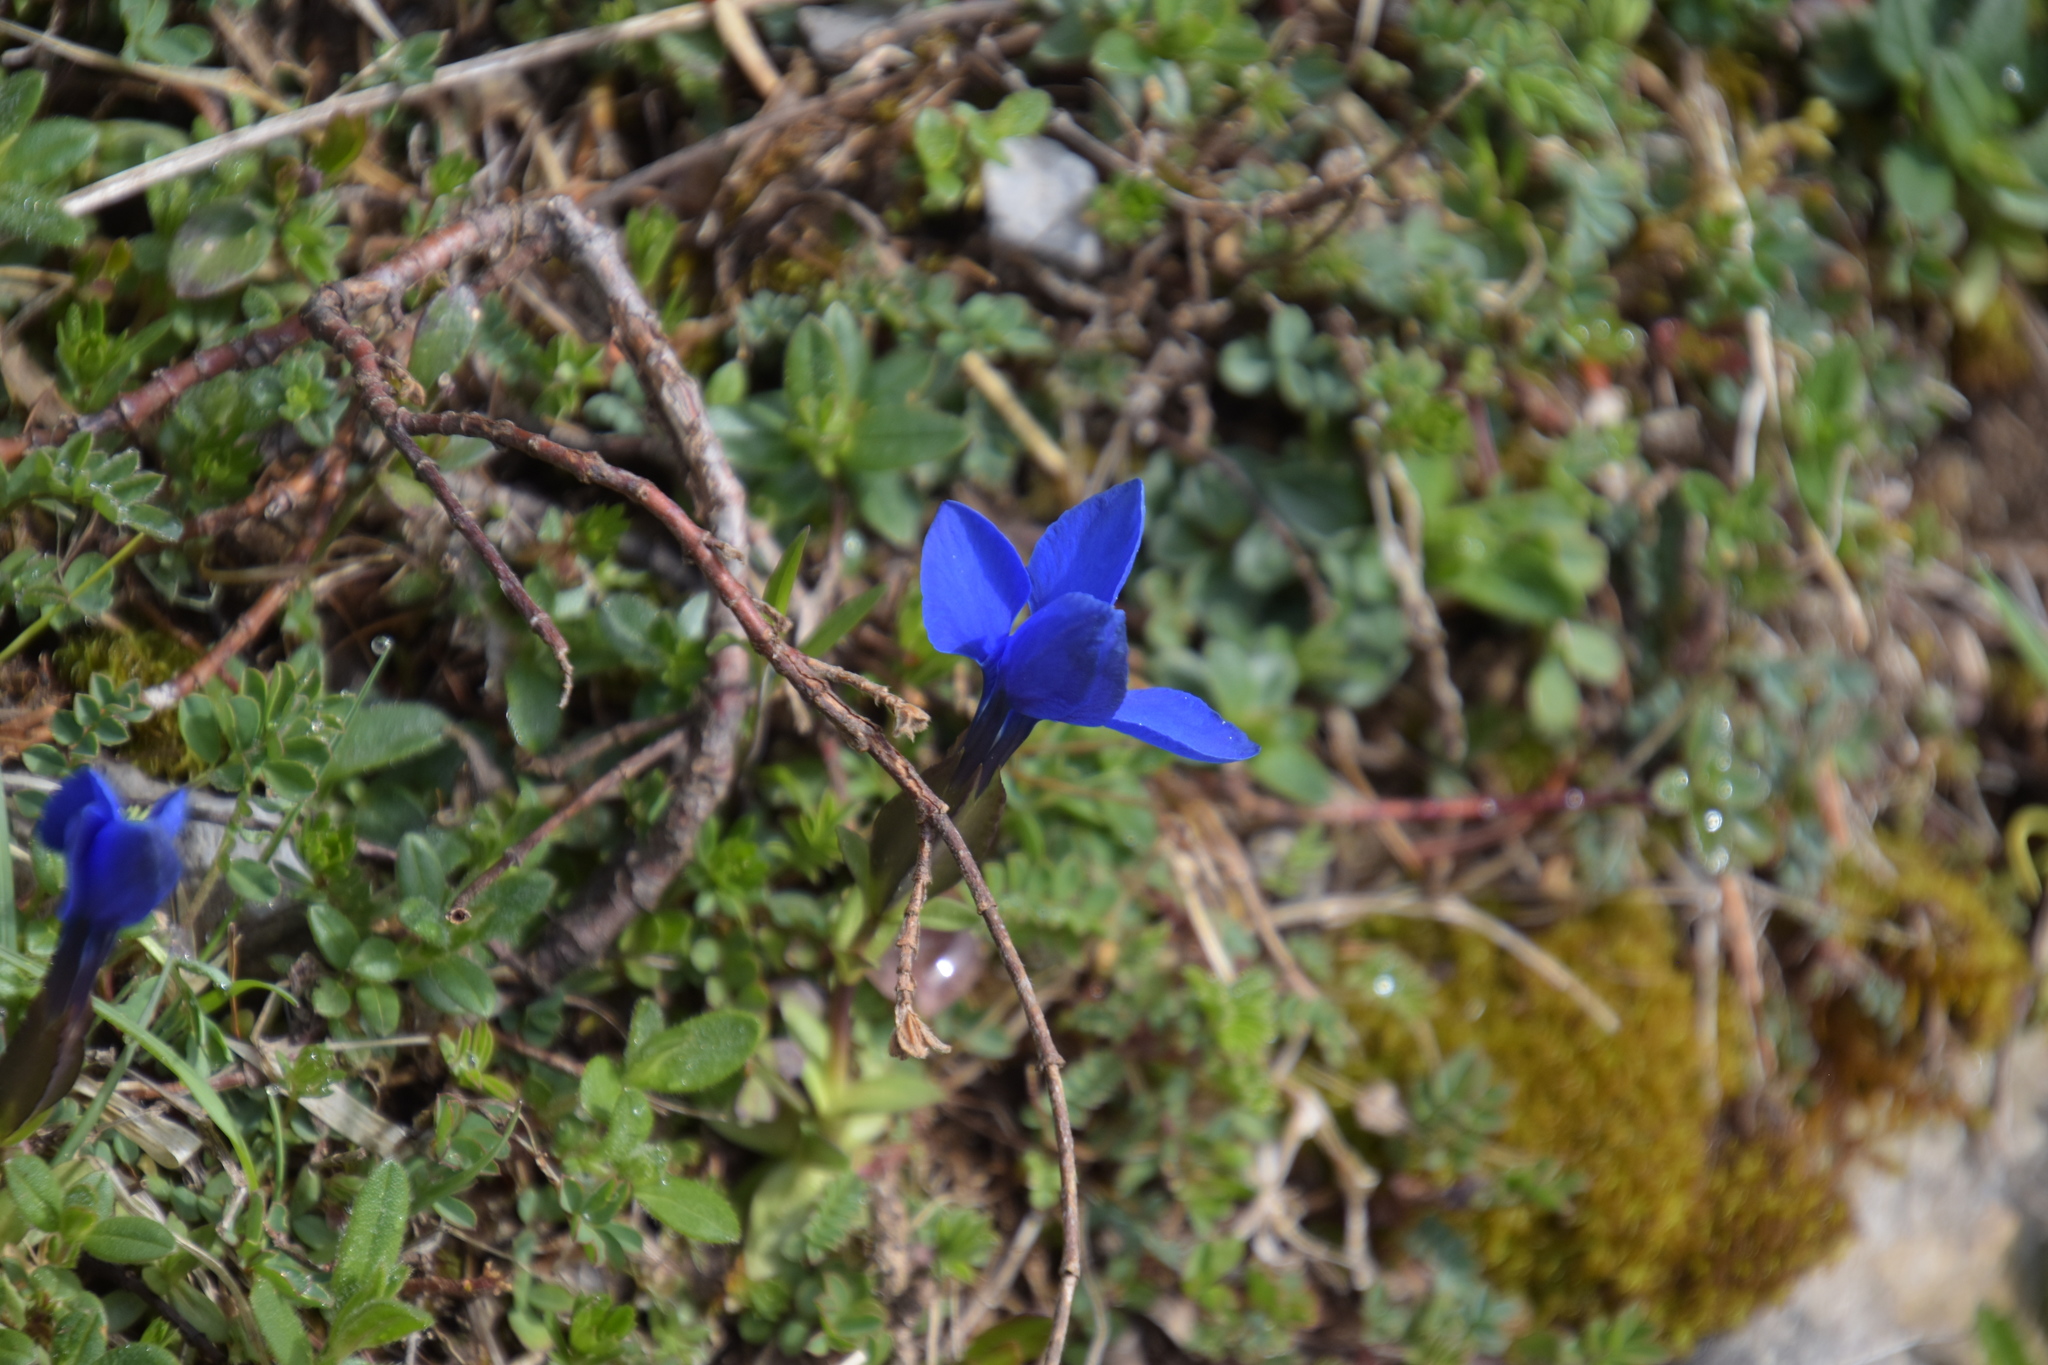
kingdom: Plantae
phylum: Tracheophyta
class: Magnoliopsida
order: Gentianales
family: Gentianaceae
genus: Gentiana
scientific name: Gentiana verna
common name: Spring gentian
